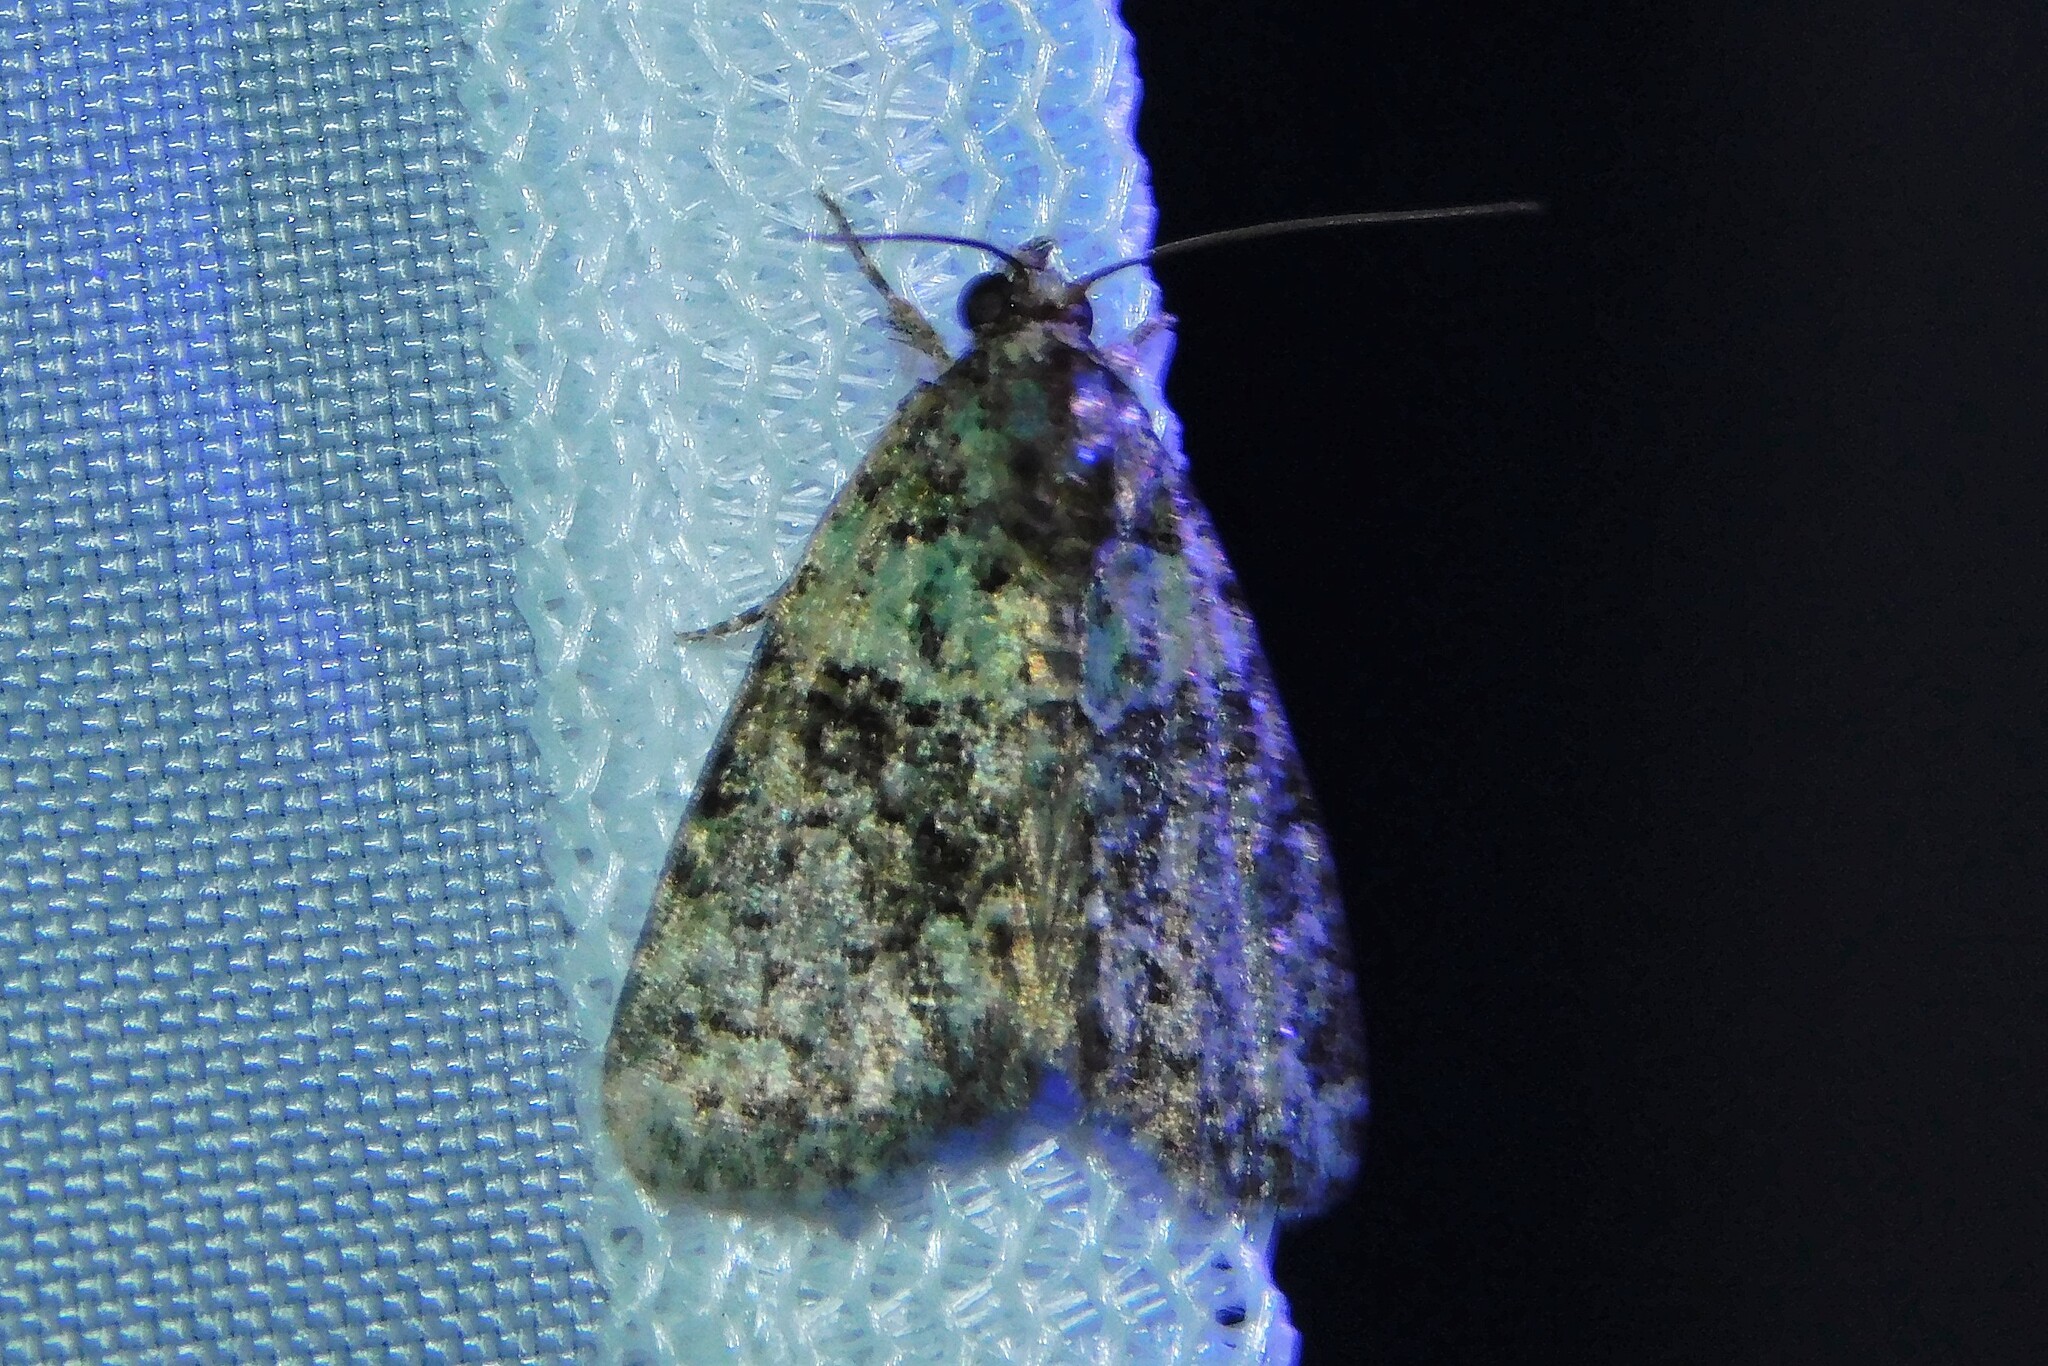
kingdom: Animalia
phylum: Arthropoda
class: Insecta
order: Lepidoptera
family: Noctuidae
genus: Cryphia
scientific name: Cryphia algae
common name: Tree-lichen beauty
